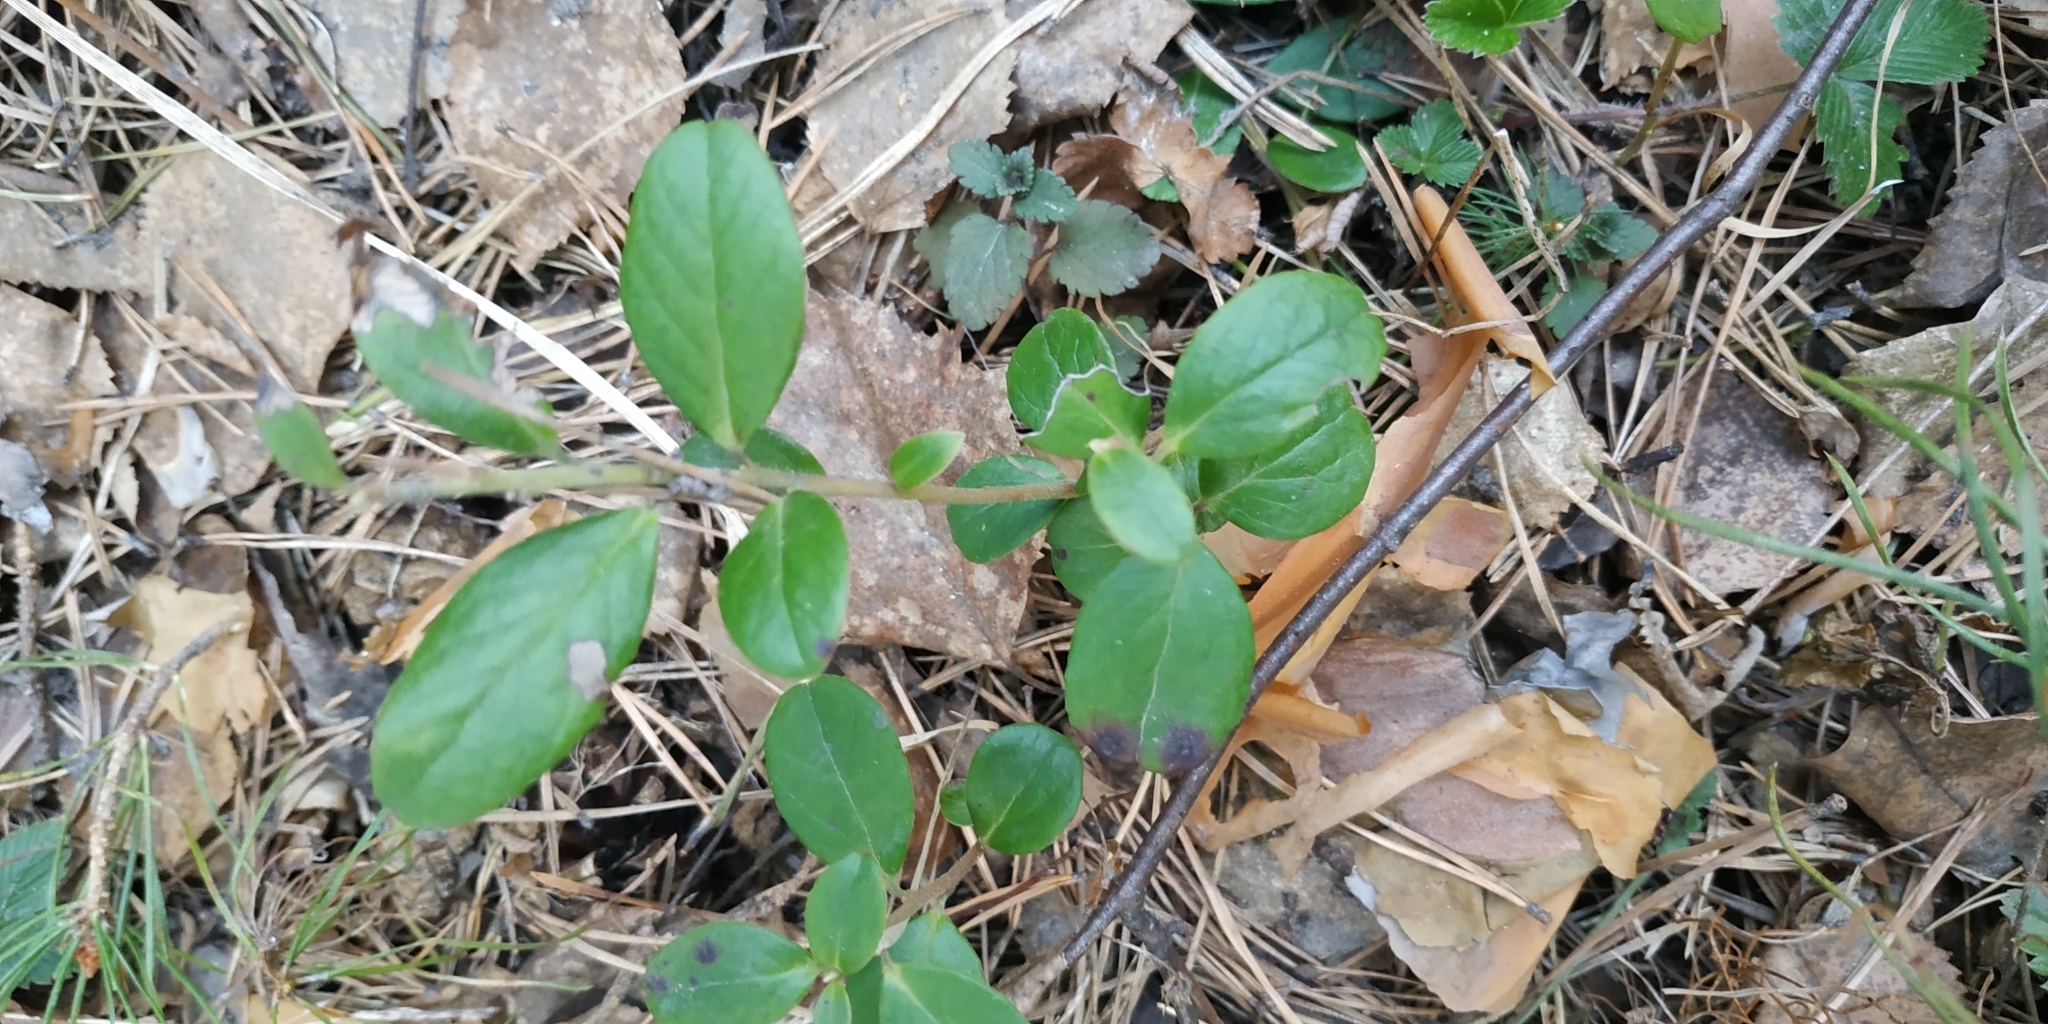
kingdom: Plantae
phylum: Tracheophyta
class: Magnoliopsida
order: Ericales
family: Ericaceae
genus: Vaccinium
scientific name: Vaccinium vitis-idaea
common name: Cowberry
